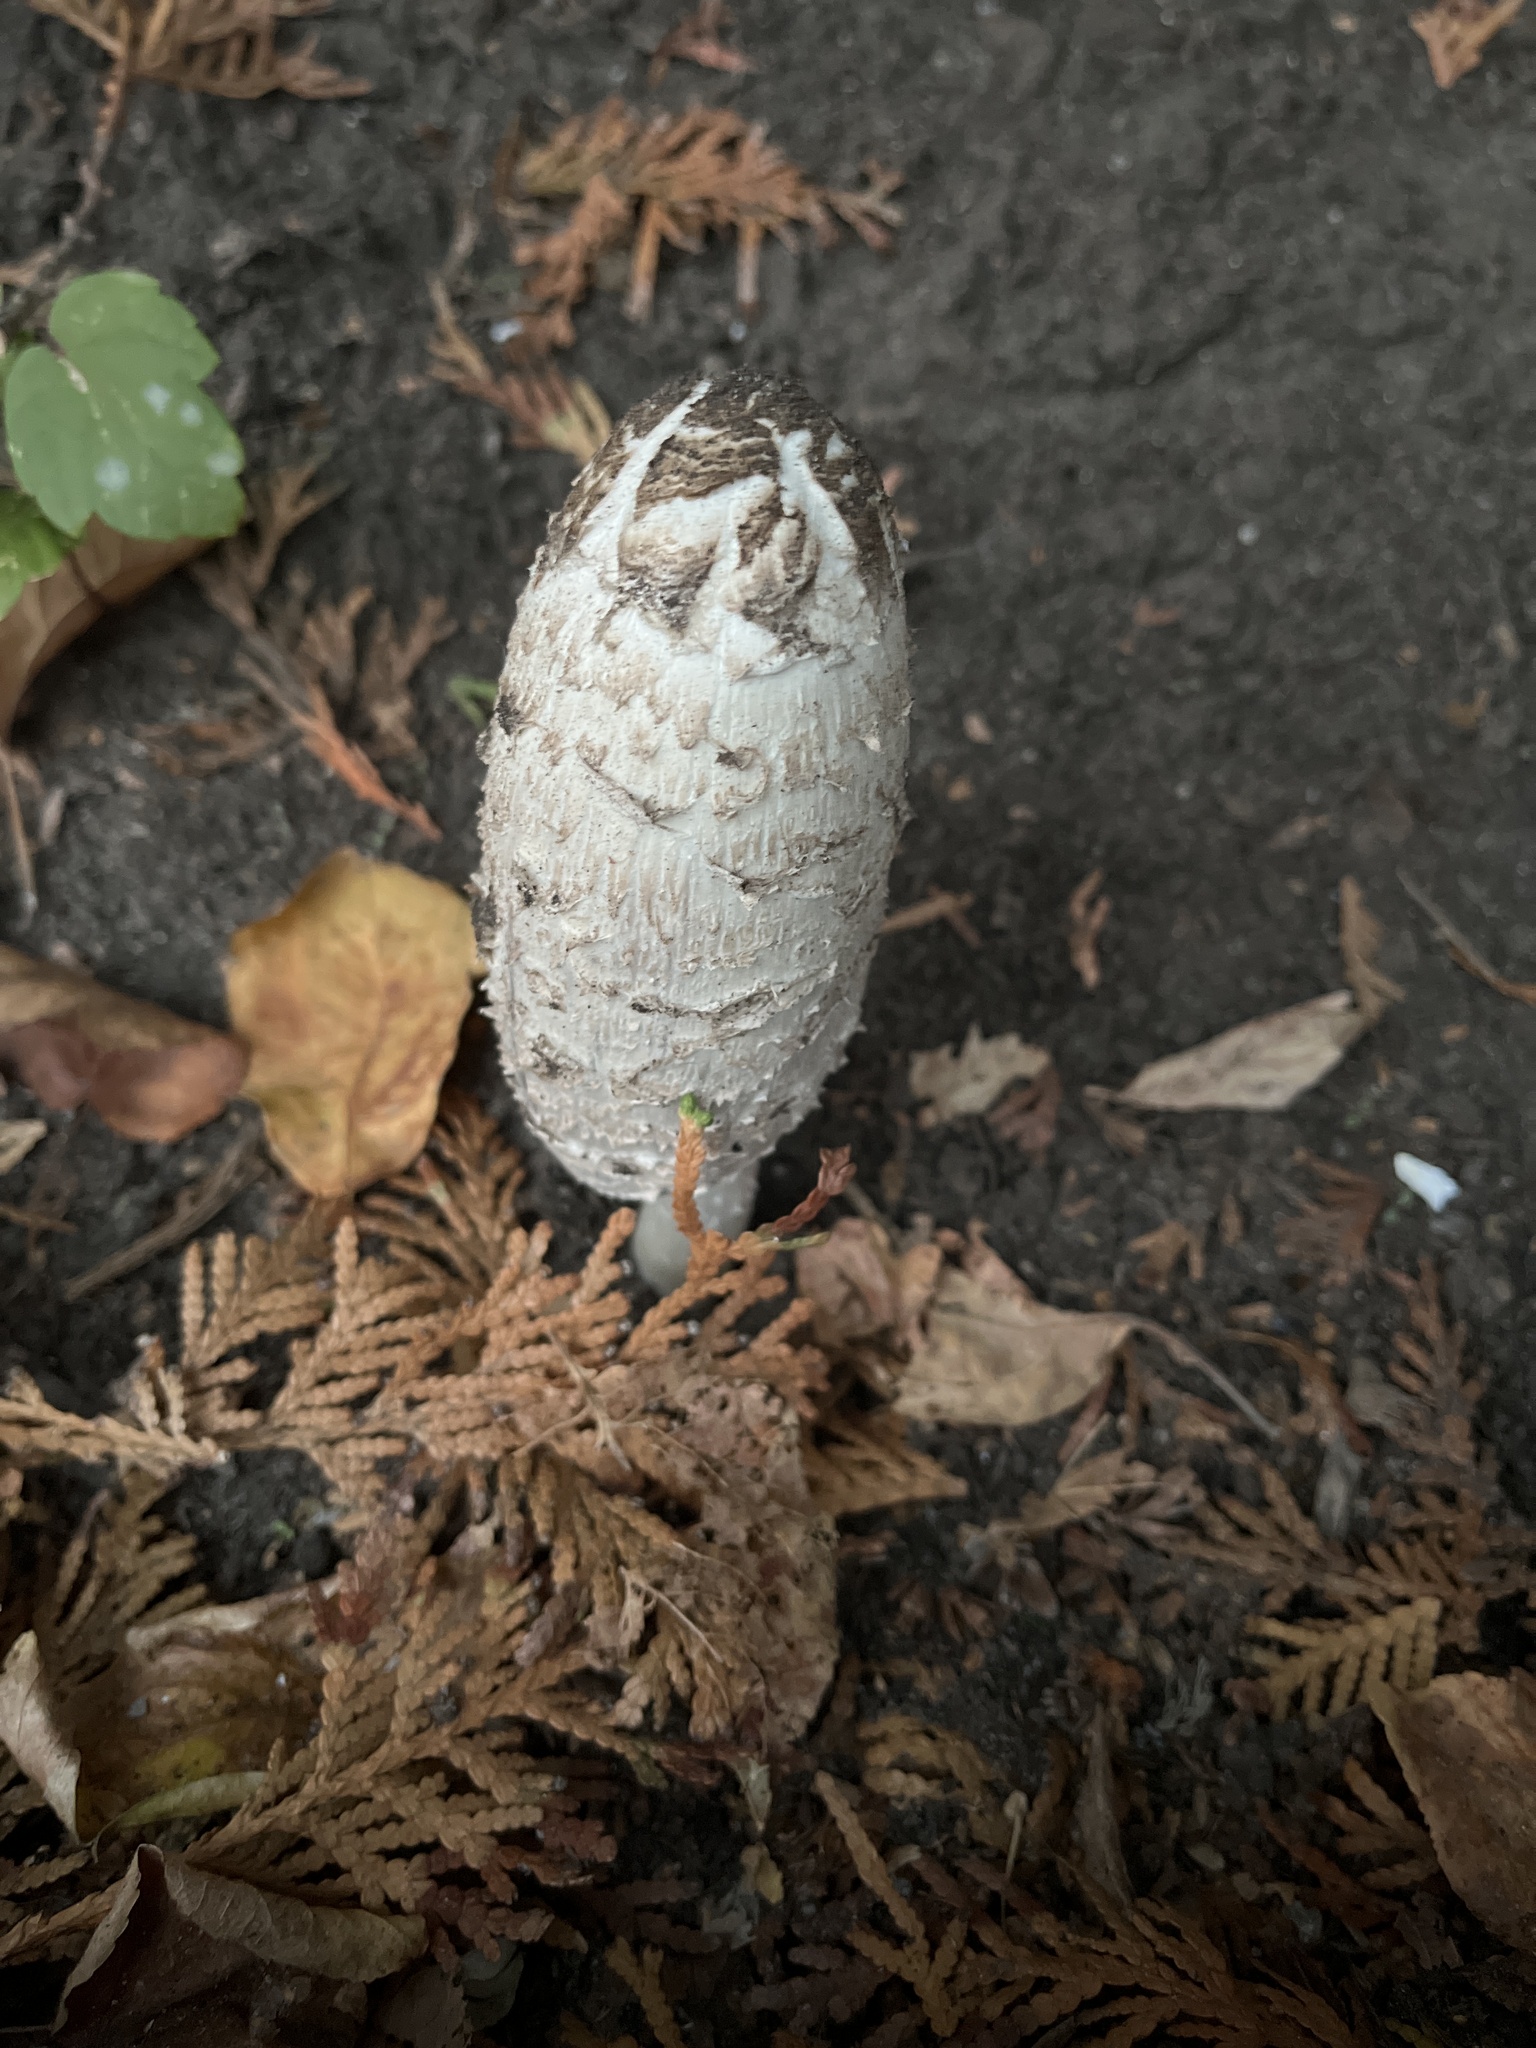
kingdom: Fungi
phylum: Basidiomycota
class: Agaricomycetes
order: Agaricales
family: Agaricaceae
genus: Coprinus
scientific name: Coprinus comatus
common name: Lawyer's wig
